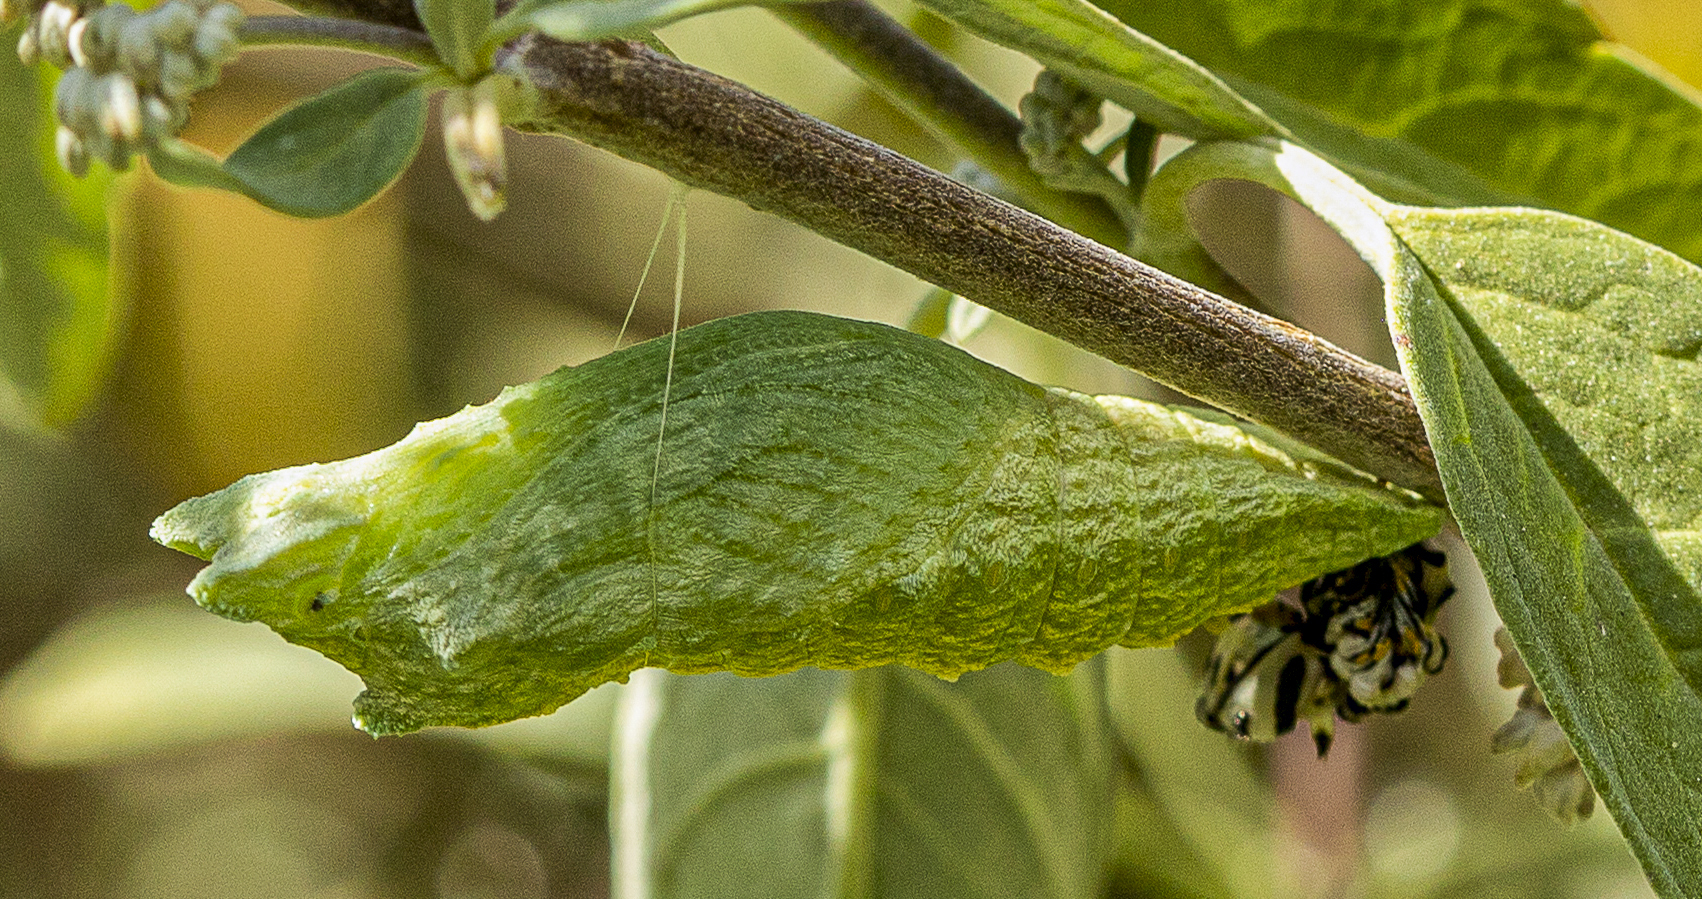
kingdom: Animalia
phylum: Arthropoda
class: Insecta
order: Lepidoptera
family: Papilionidae
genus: Papilio
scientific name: Papilio polyxenes
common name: Black swallowtail
